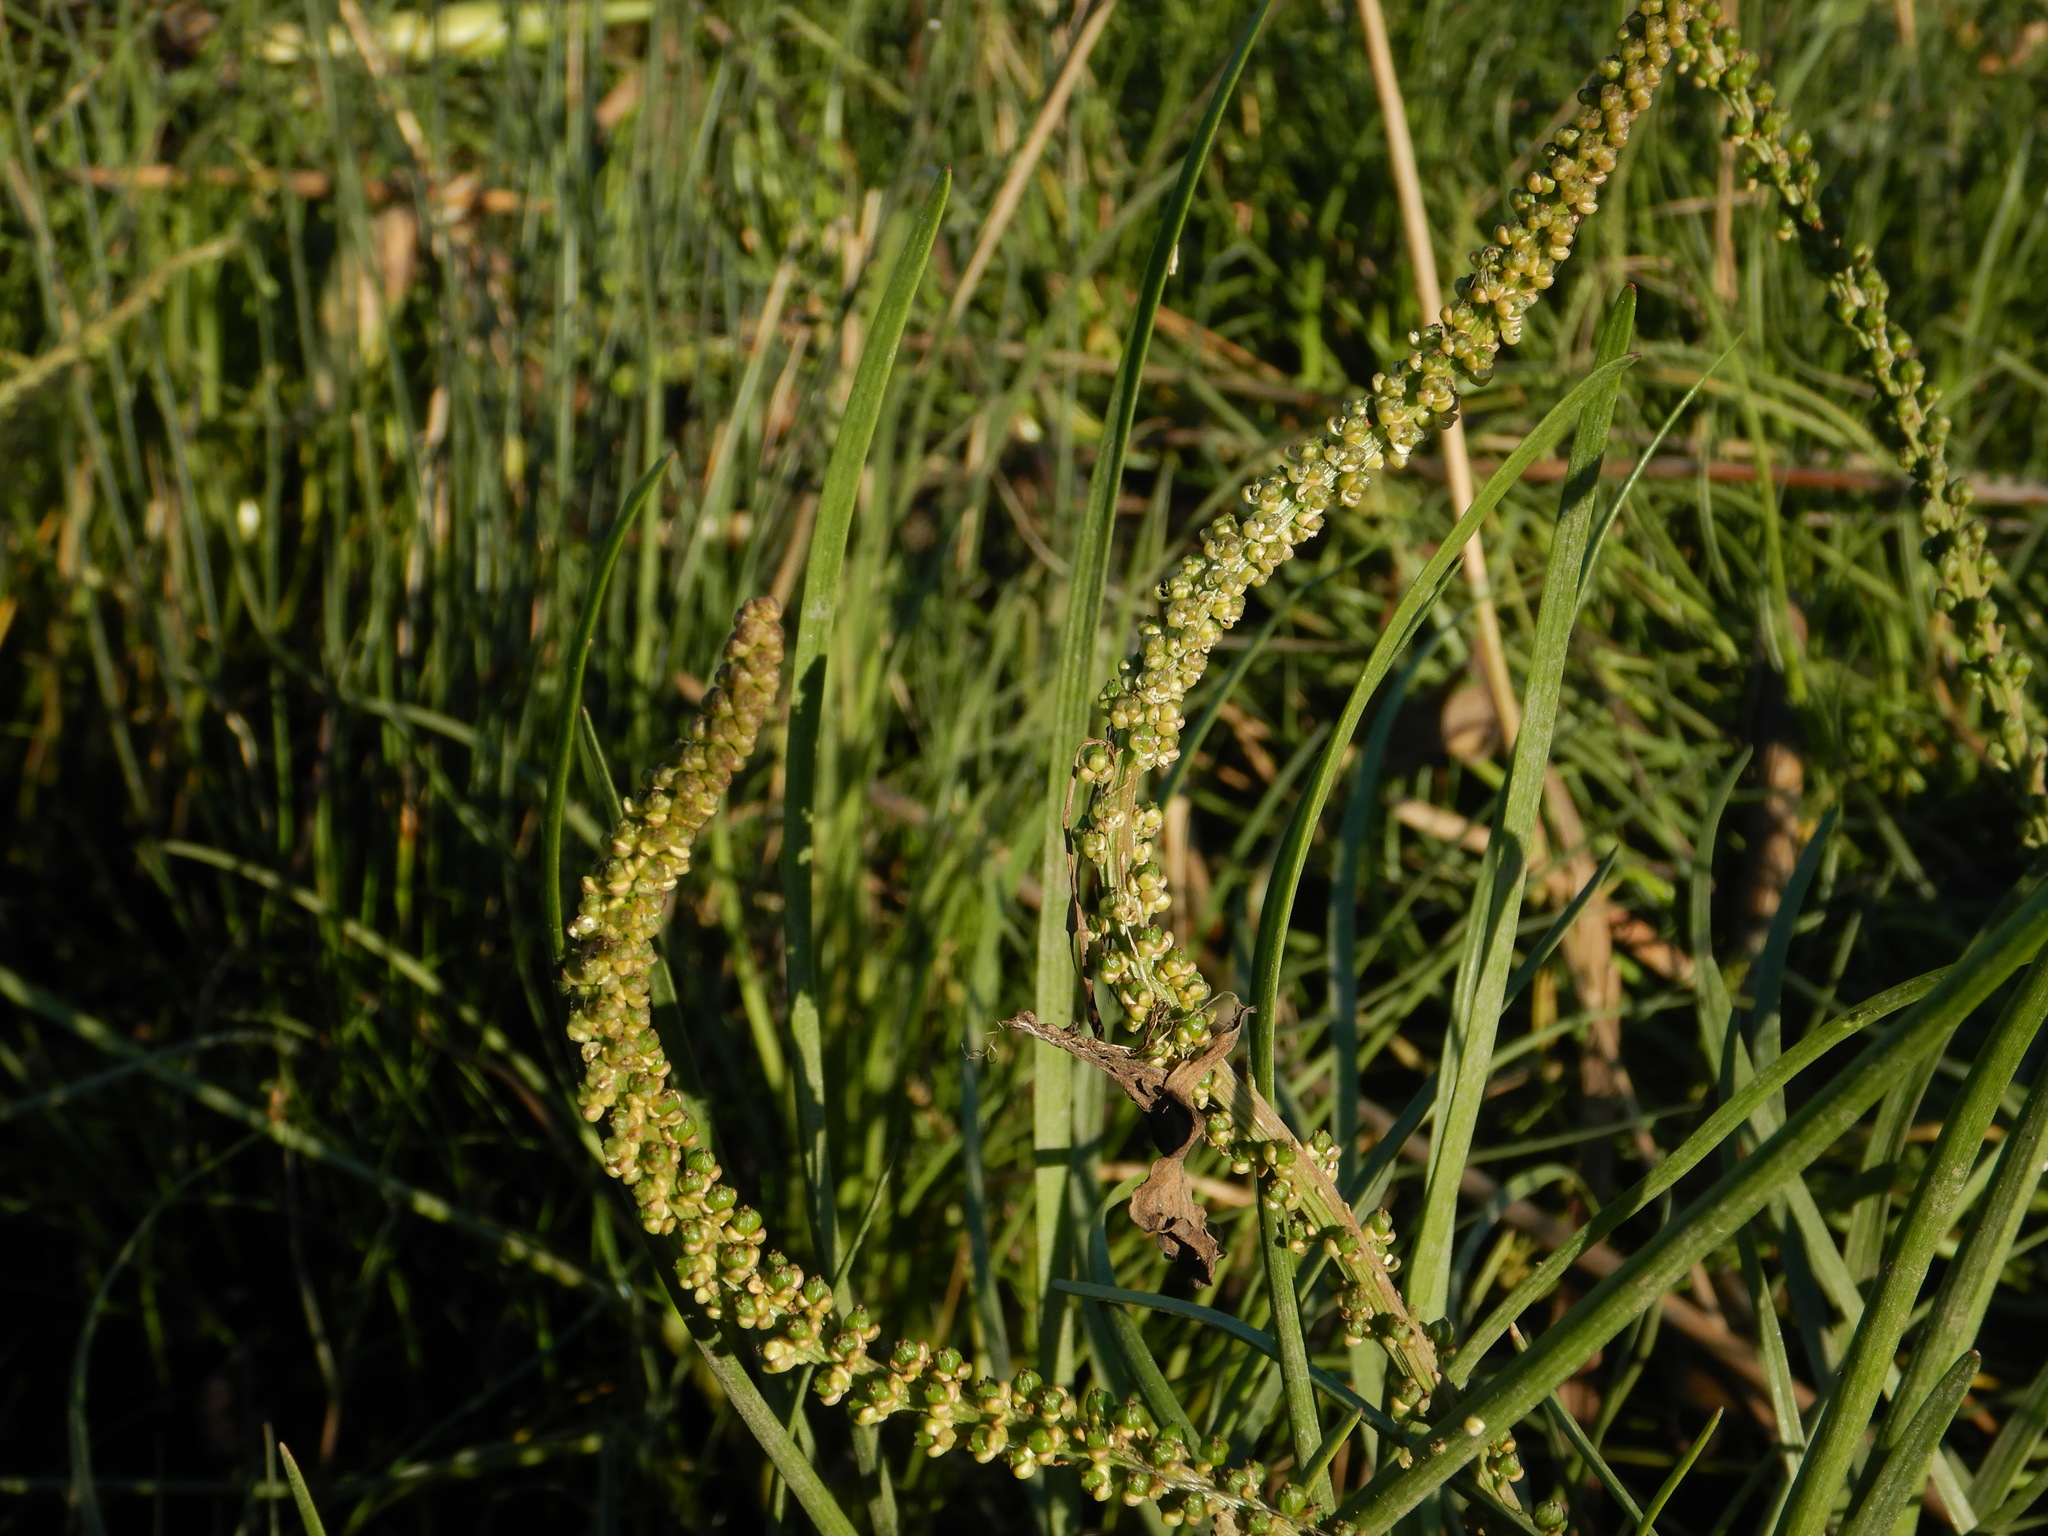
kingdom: Plantae
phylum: Tracheophyta
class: Liliopsida
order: Alismatales
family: Juncaginaceae
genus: Triglochin
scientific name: Triglochin maritima
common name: Sea arrowgrass
